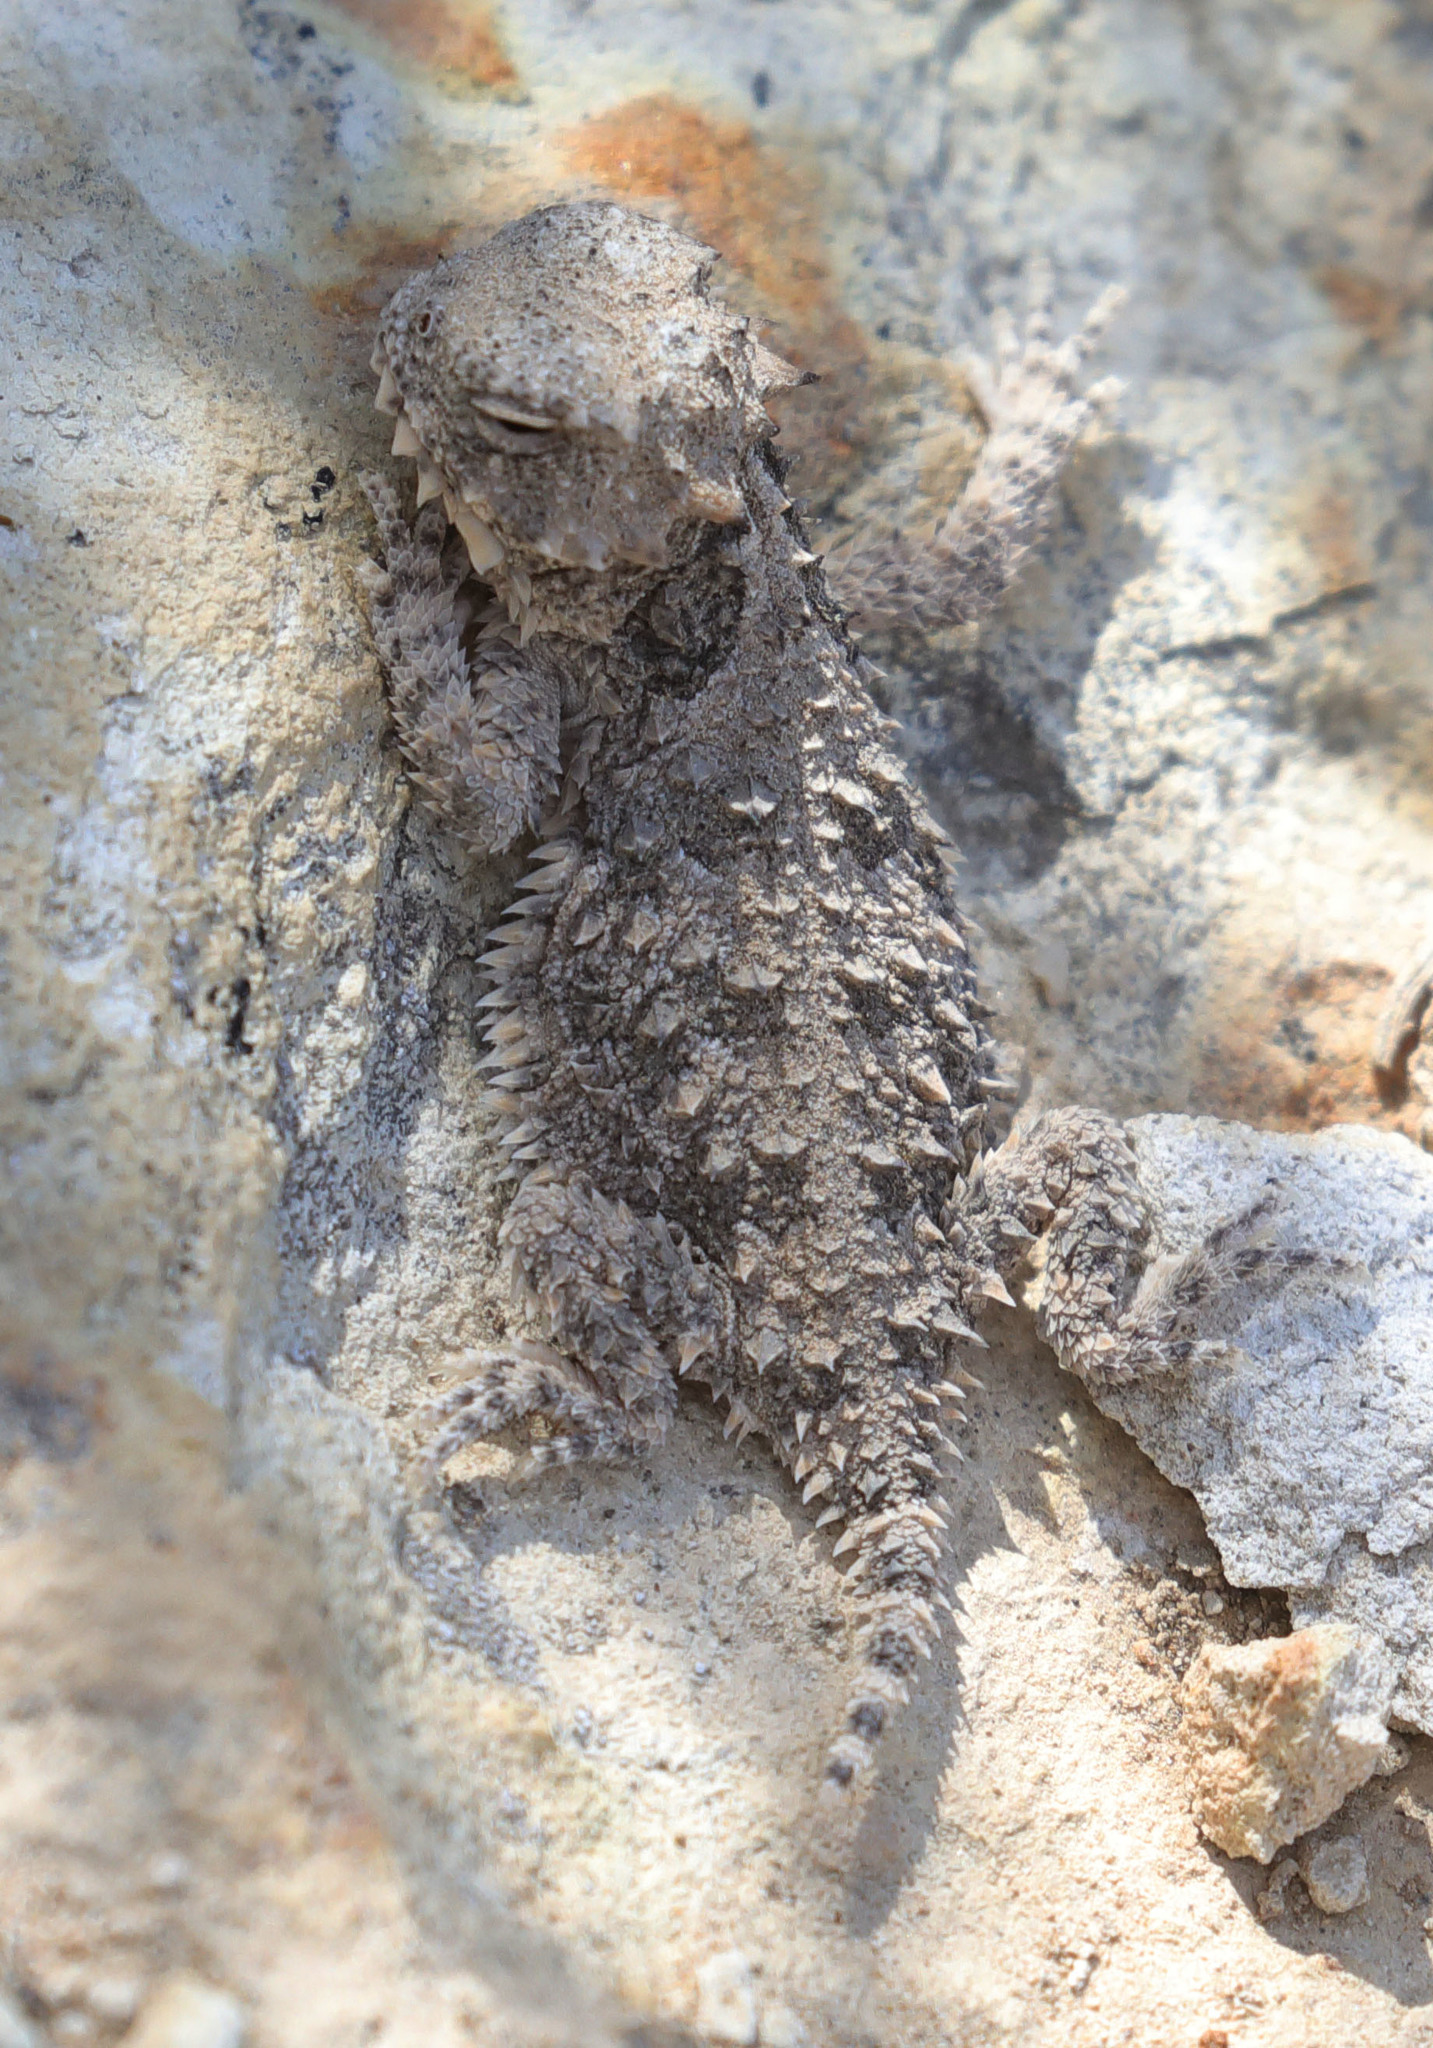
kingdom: Animalia
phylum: Chordata
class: Squamata
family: Phrynosomatidae
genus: Phrynosoma
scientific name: Phrynosoma blainvillii
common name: San diego horned lizard
